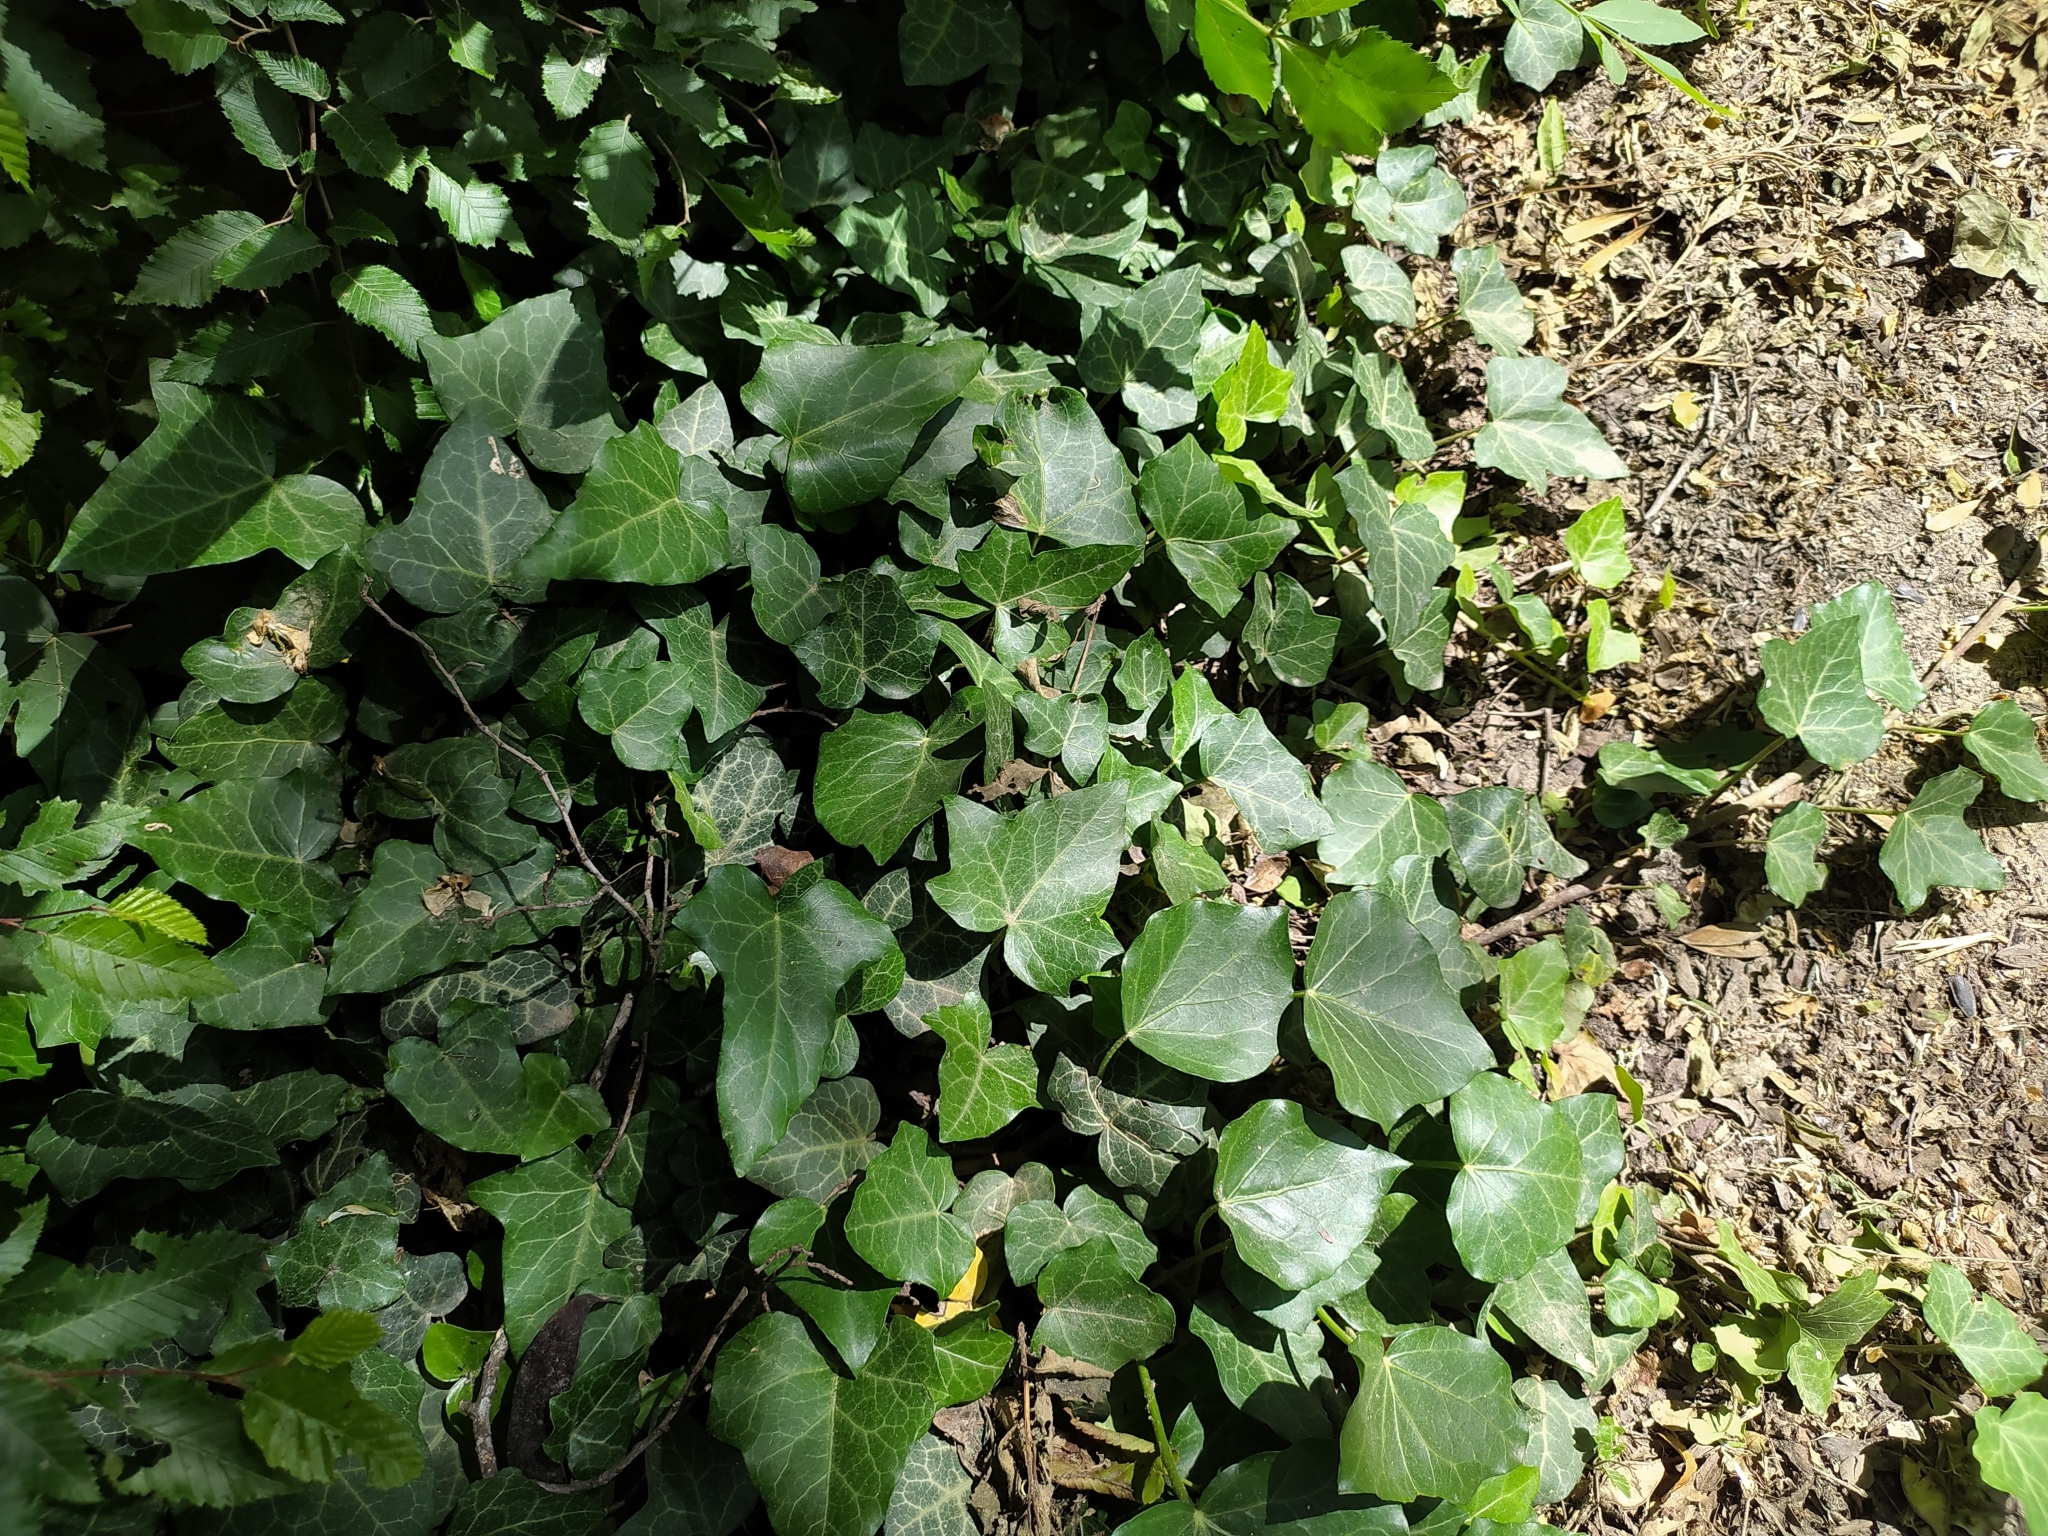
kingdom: Plantae
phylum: Tracheophyta
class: Magnoliopsida
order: Apiales
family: Araliaceae
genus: Hedera
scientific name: Hedera helix
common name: Ivy
